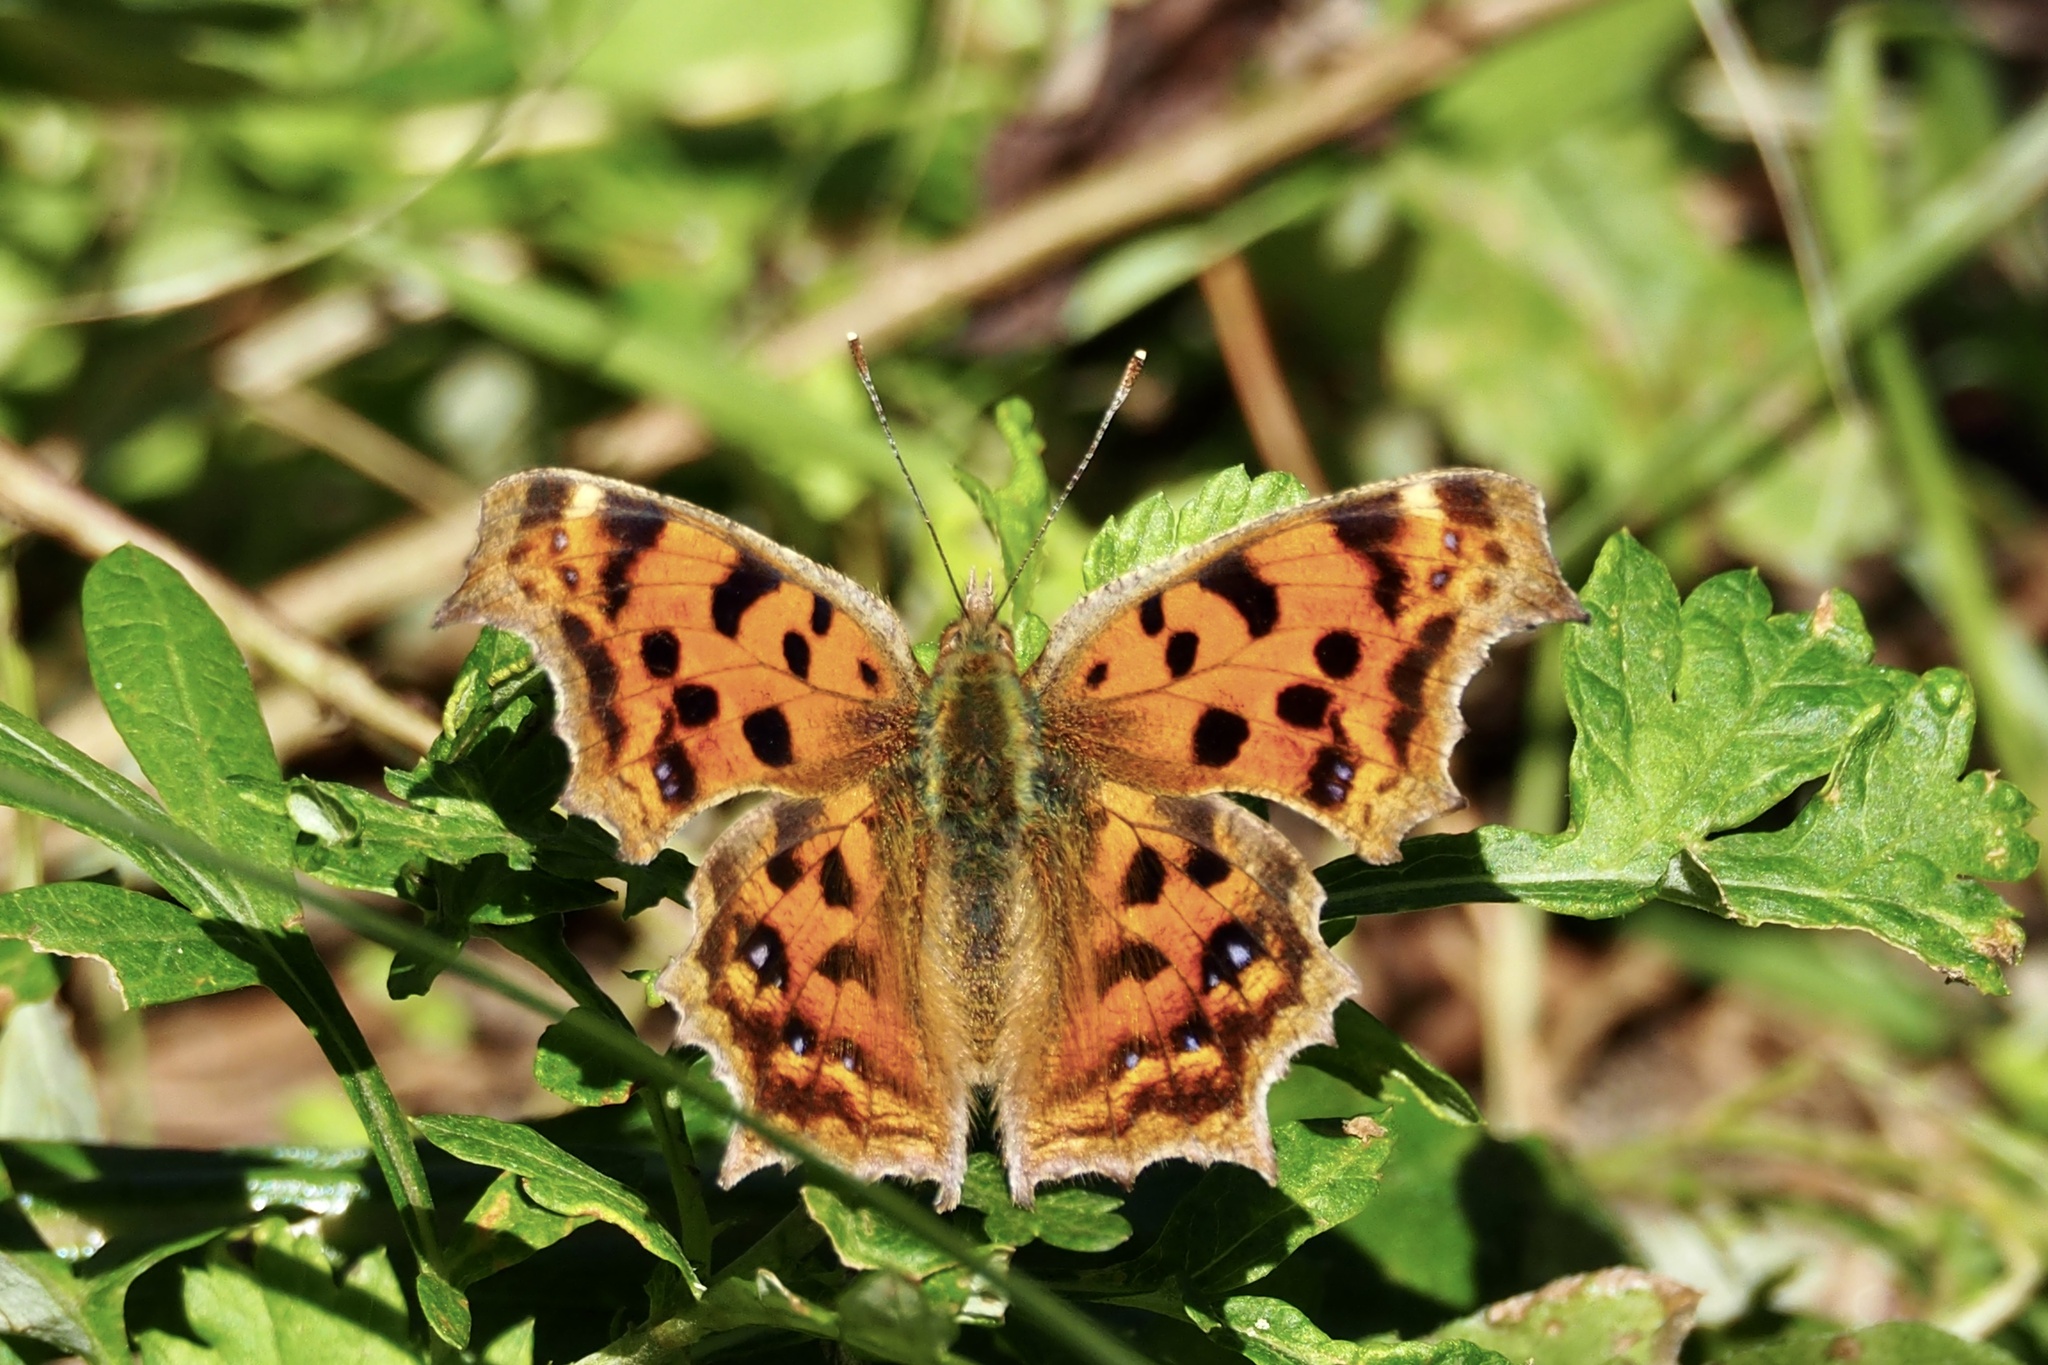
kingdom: Animalia
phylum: Arthropoda
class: Insecta
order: Lepidoptera
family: Nymphalidae
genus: Polygonia
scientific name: Polygonia c-aureum
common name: Asian comma
